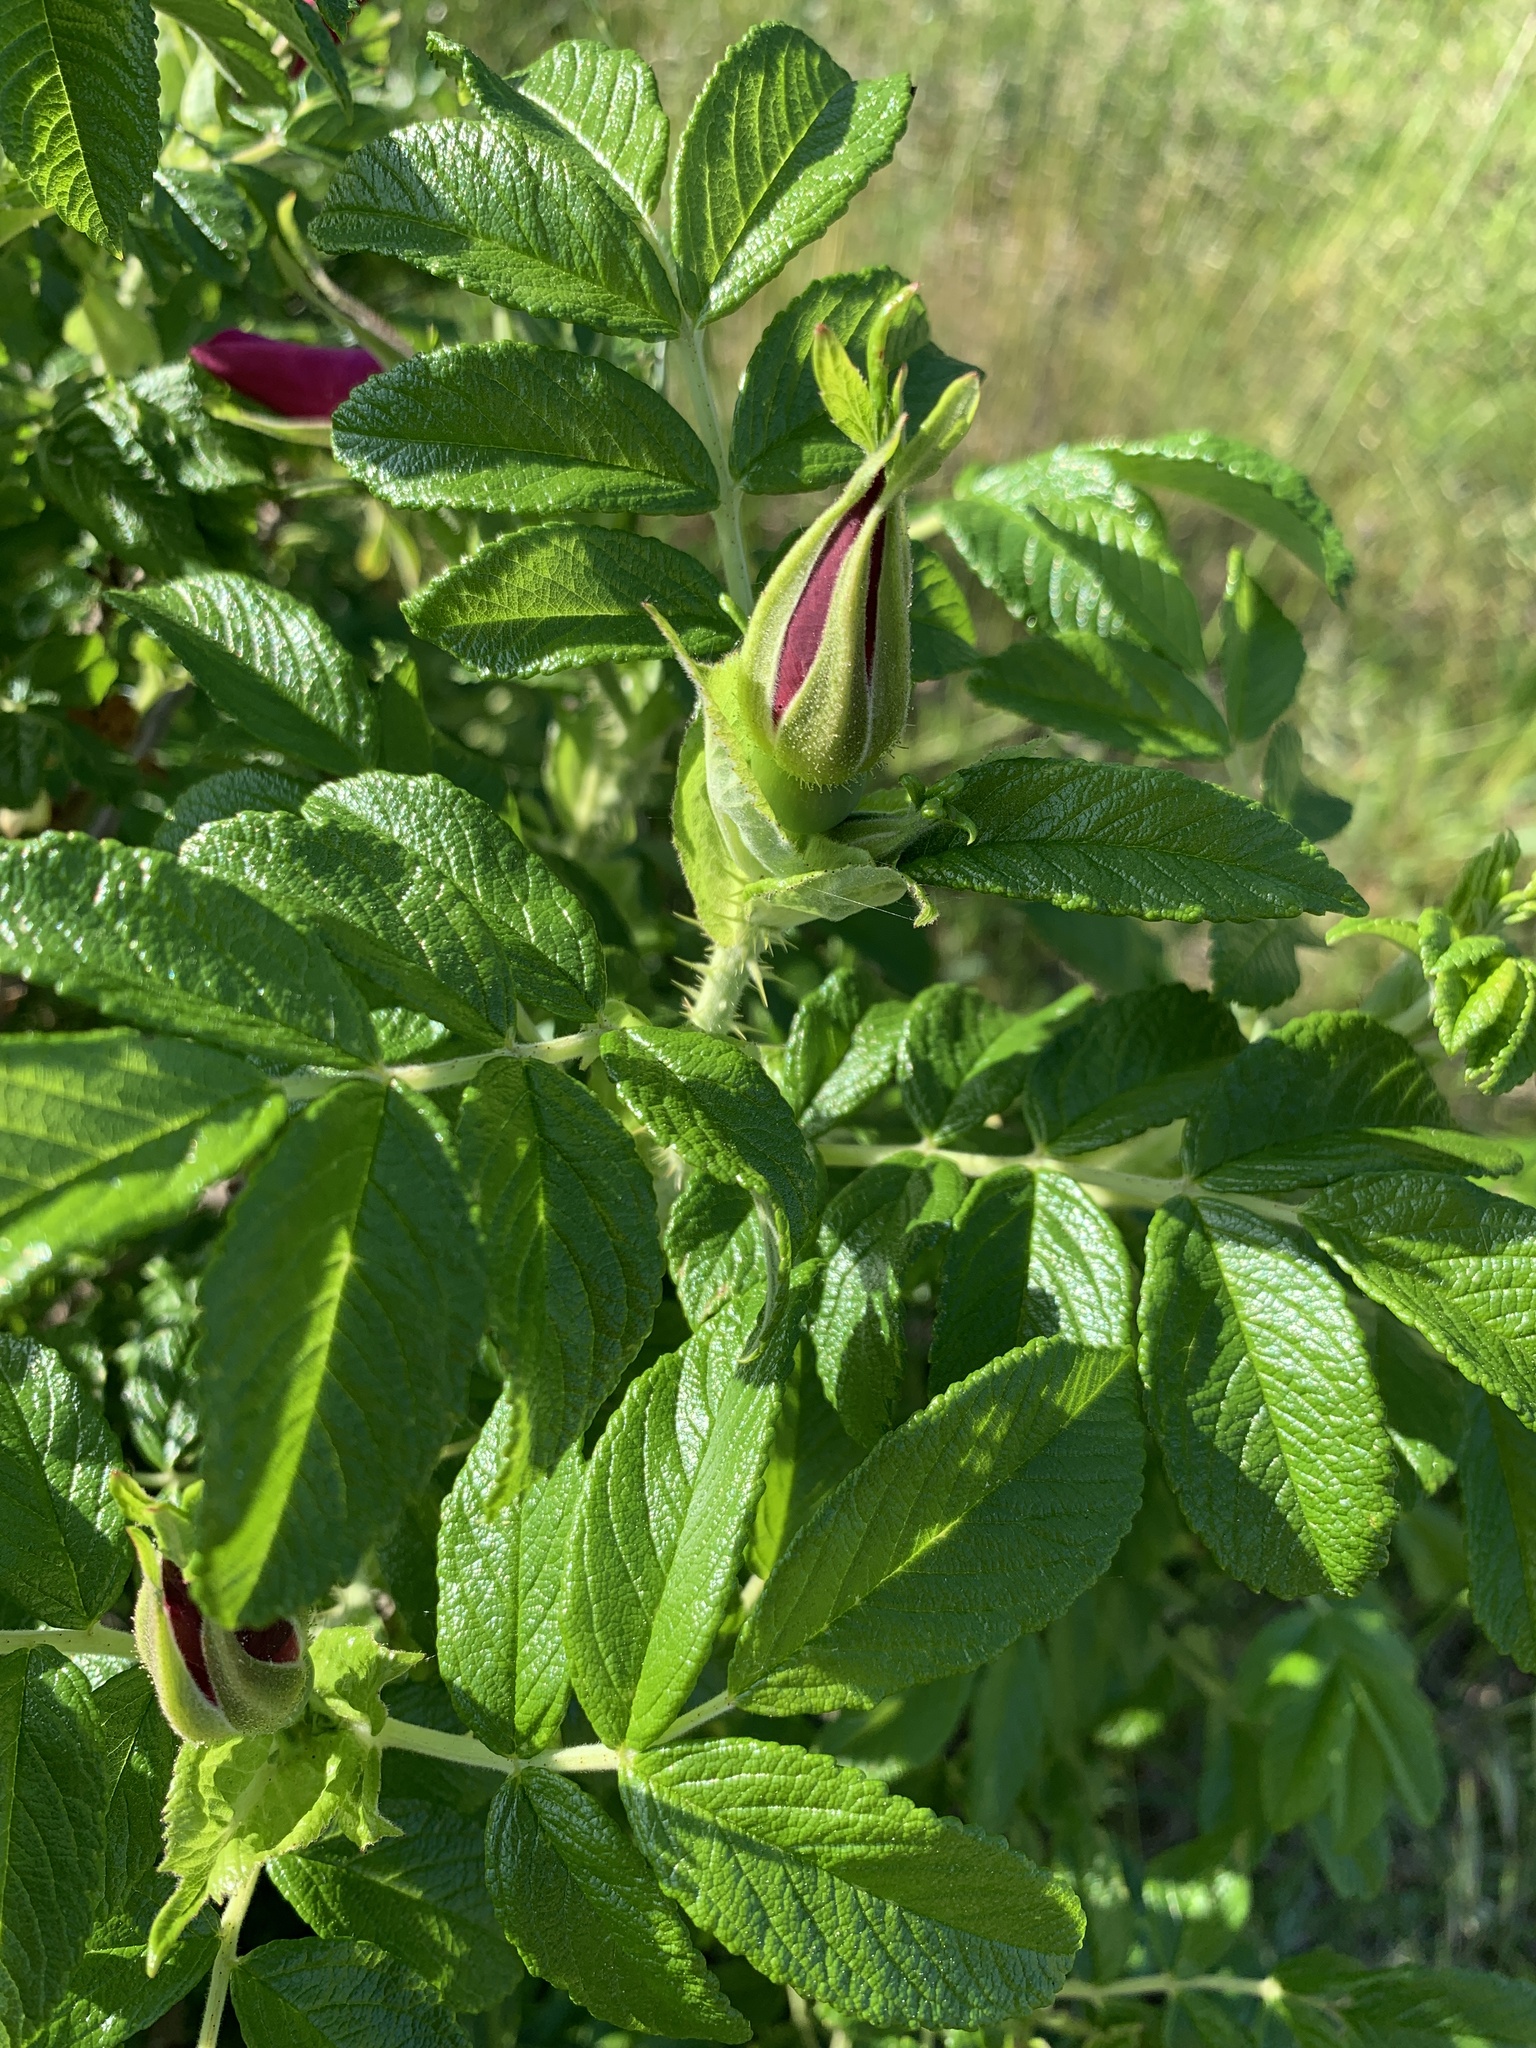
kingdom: Plantae
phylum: Tracheophyta
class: Magnoliopsida
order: Rosales
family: Rosaceae
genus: Rosa
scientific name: Rosa rugosa
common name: Japanese rose
